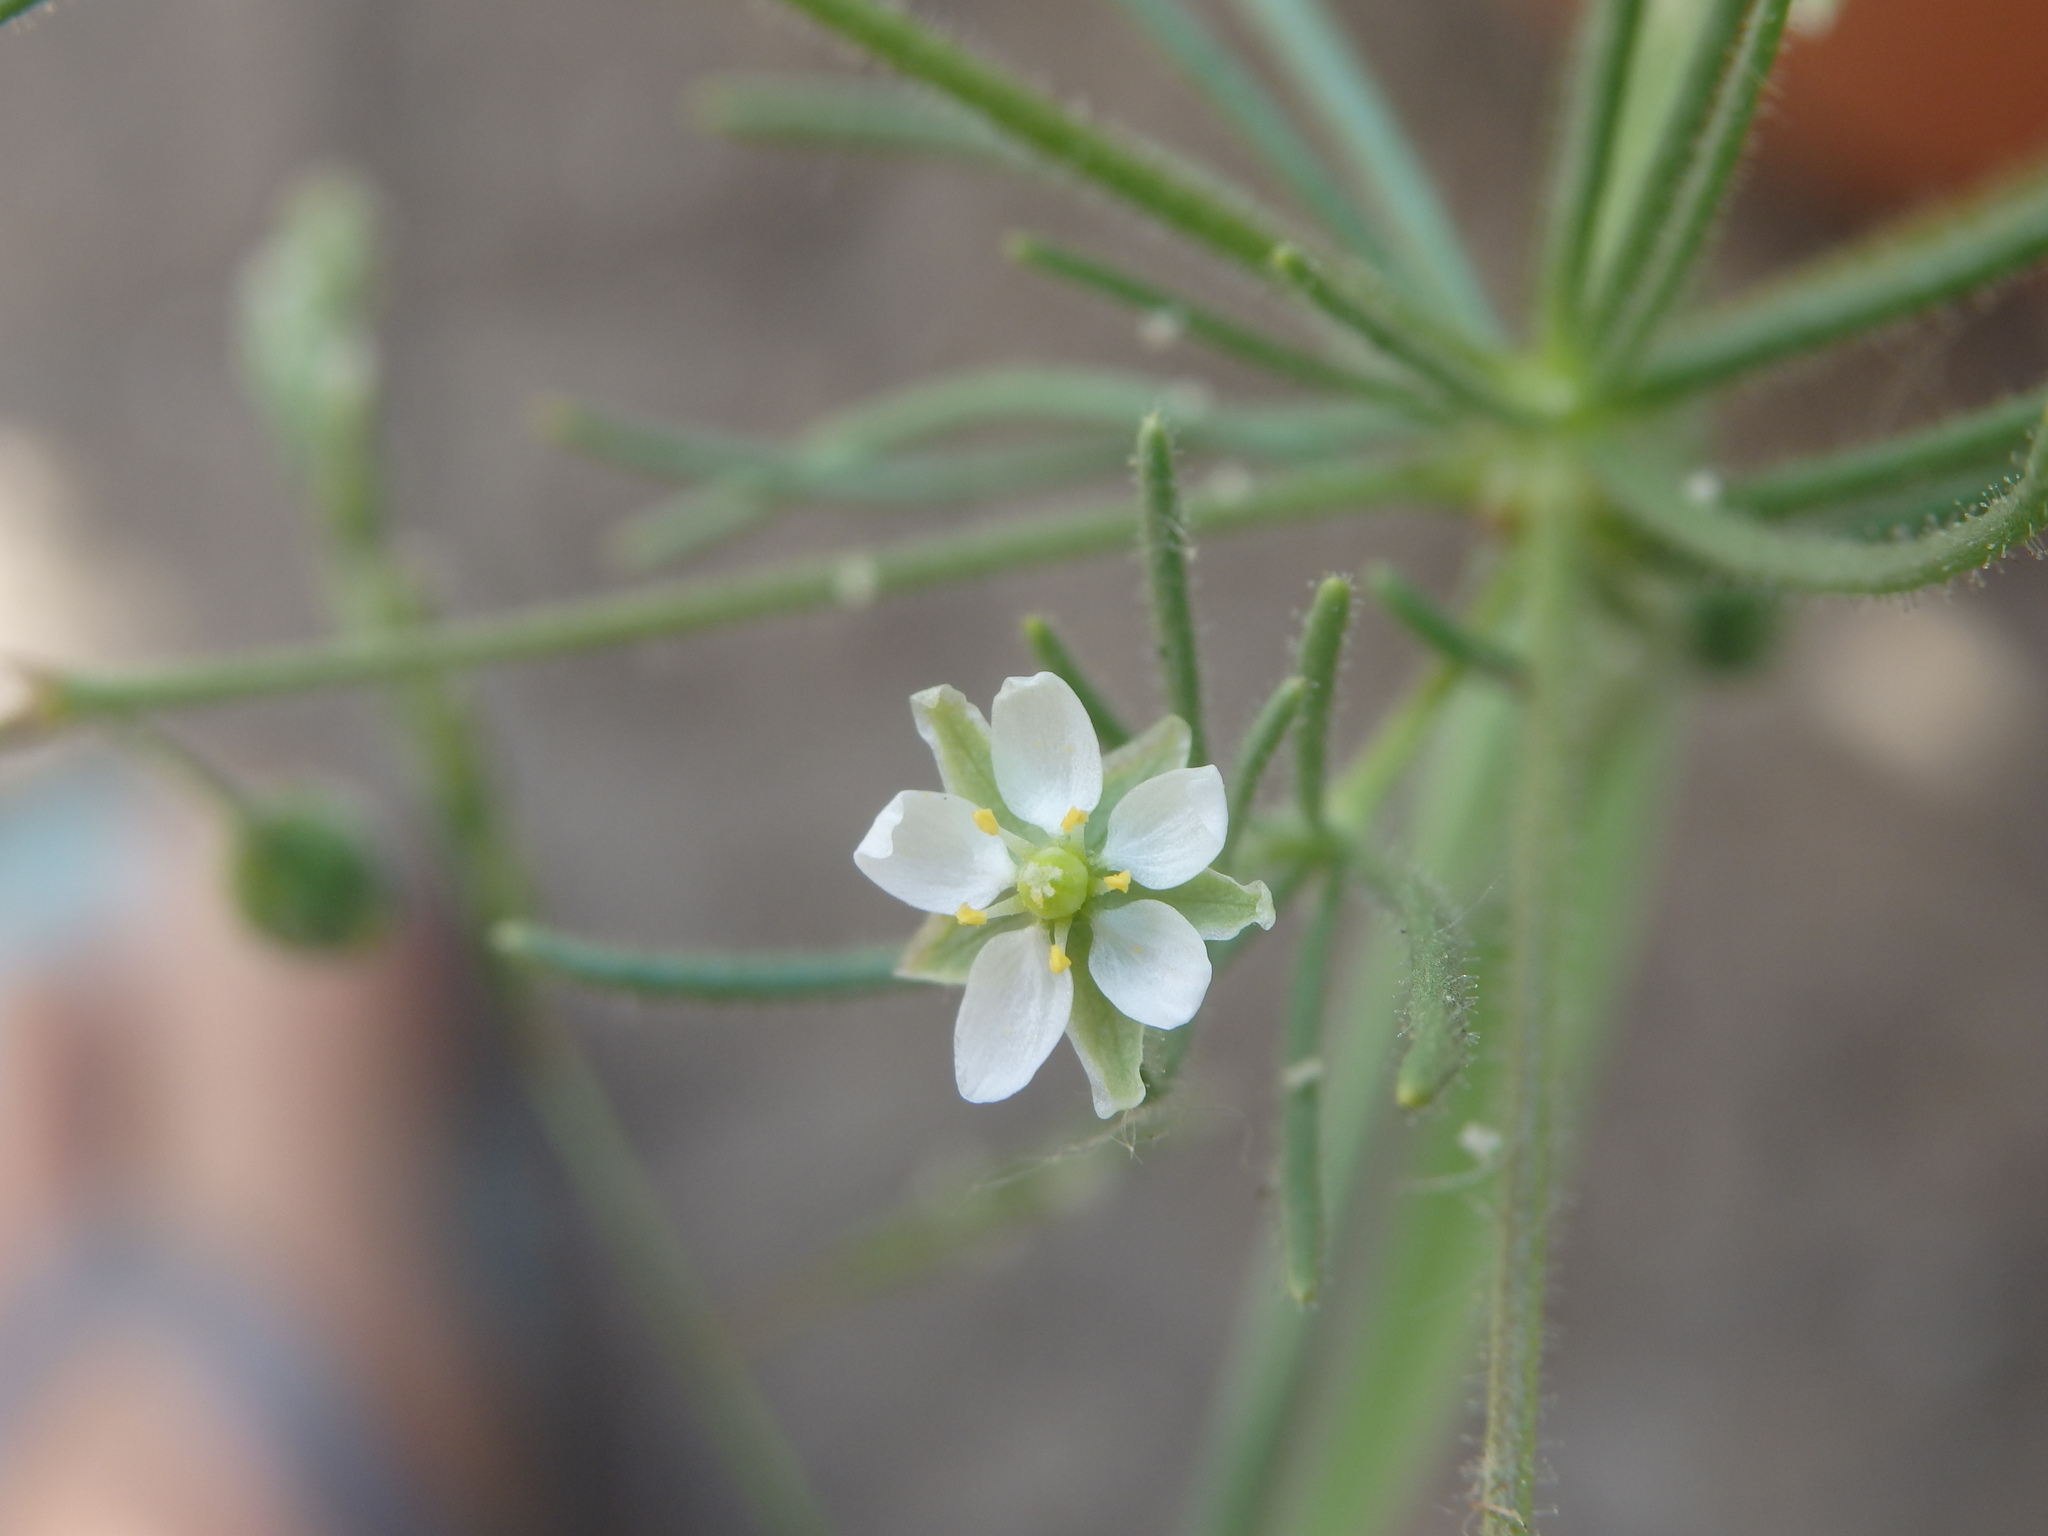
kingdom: Plantae
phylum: Tracheophyta
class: Magnoliopsida
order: Caryophyllales
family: Caryophyllaceae
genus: Spergula
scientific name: Spergula arvensis
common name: Corn spurrey
